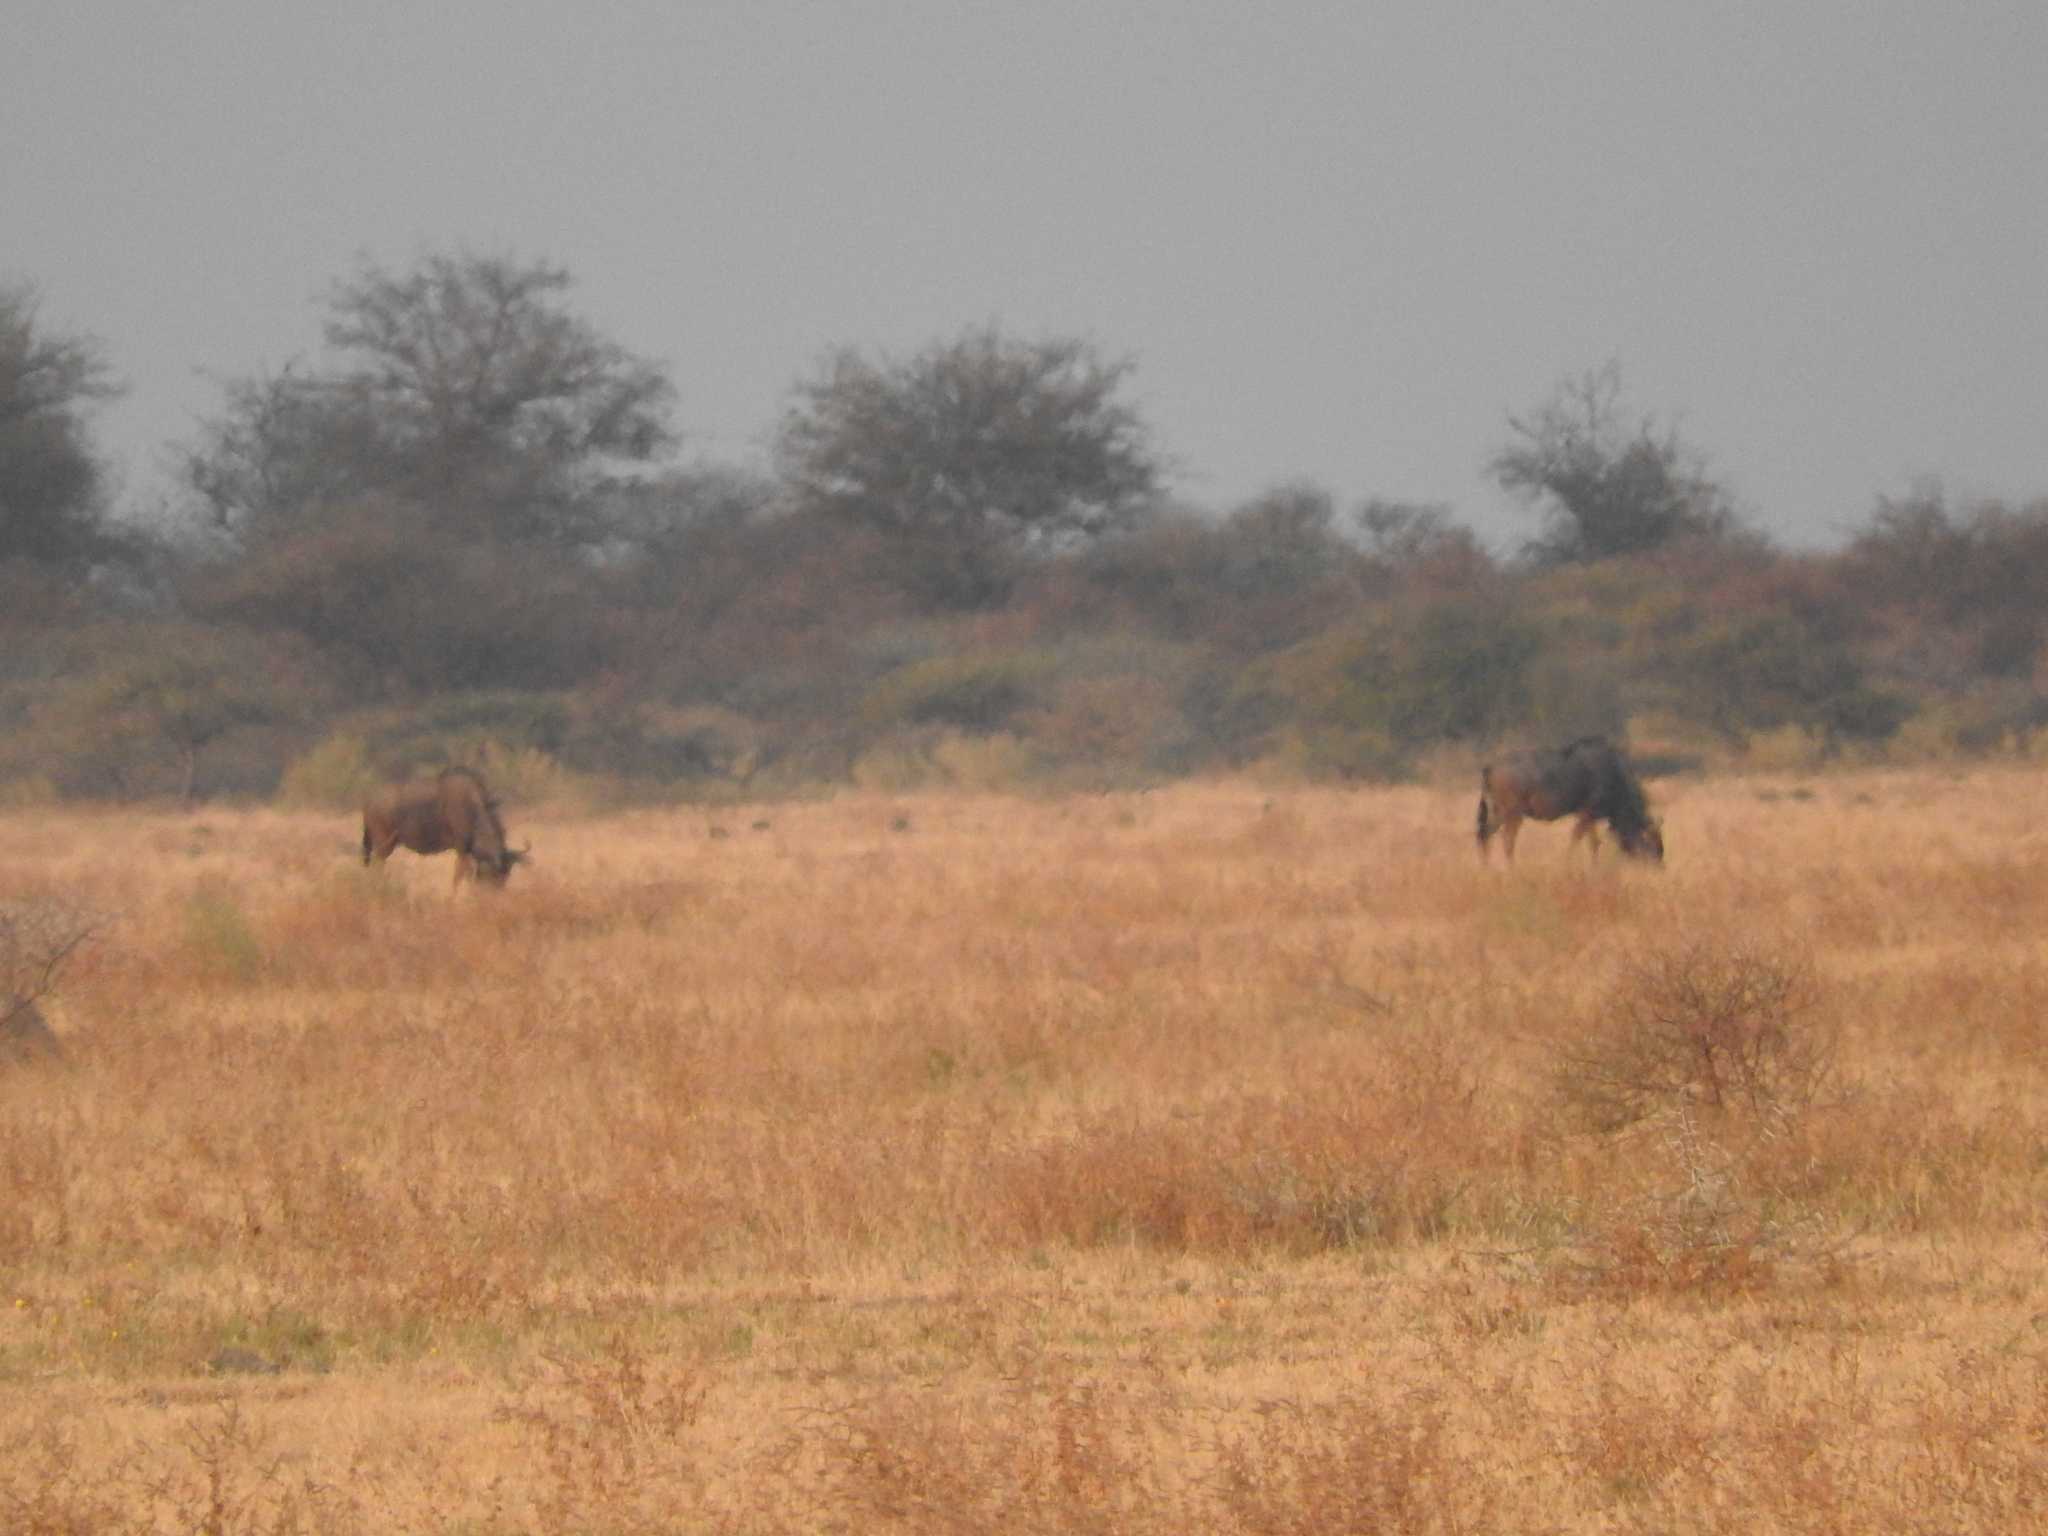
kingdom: Animalia
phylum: Chordata
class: Mammalia
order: Artiodactyla
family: Bovidae
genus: Connochaetes
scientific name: Connochaetes taurinus
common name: Blue wildebeest
